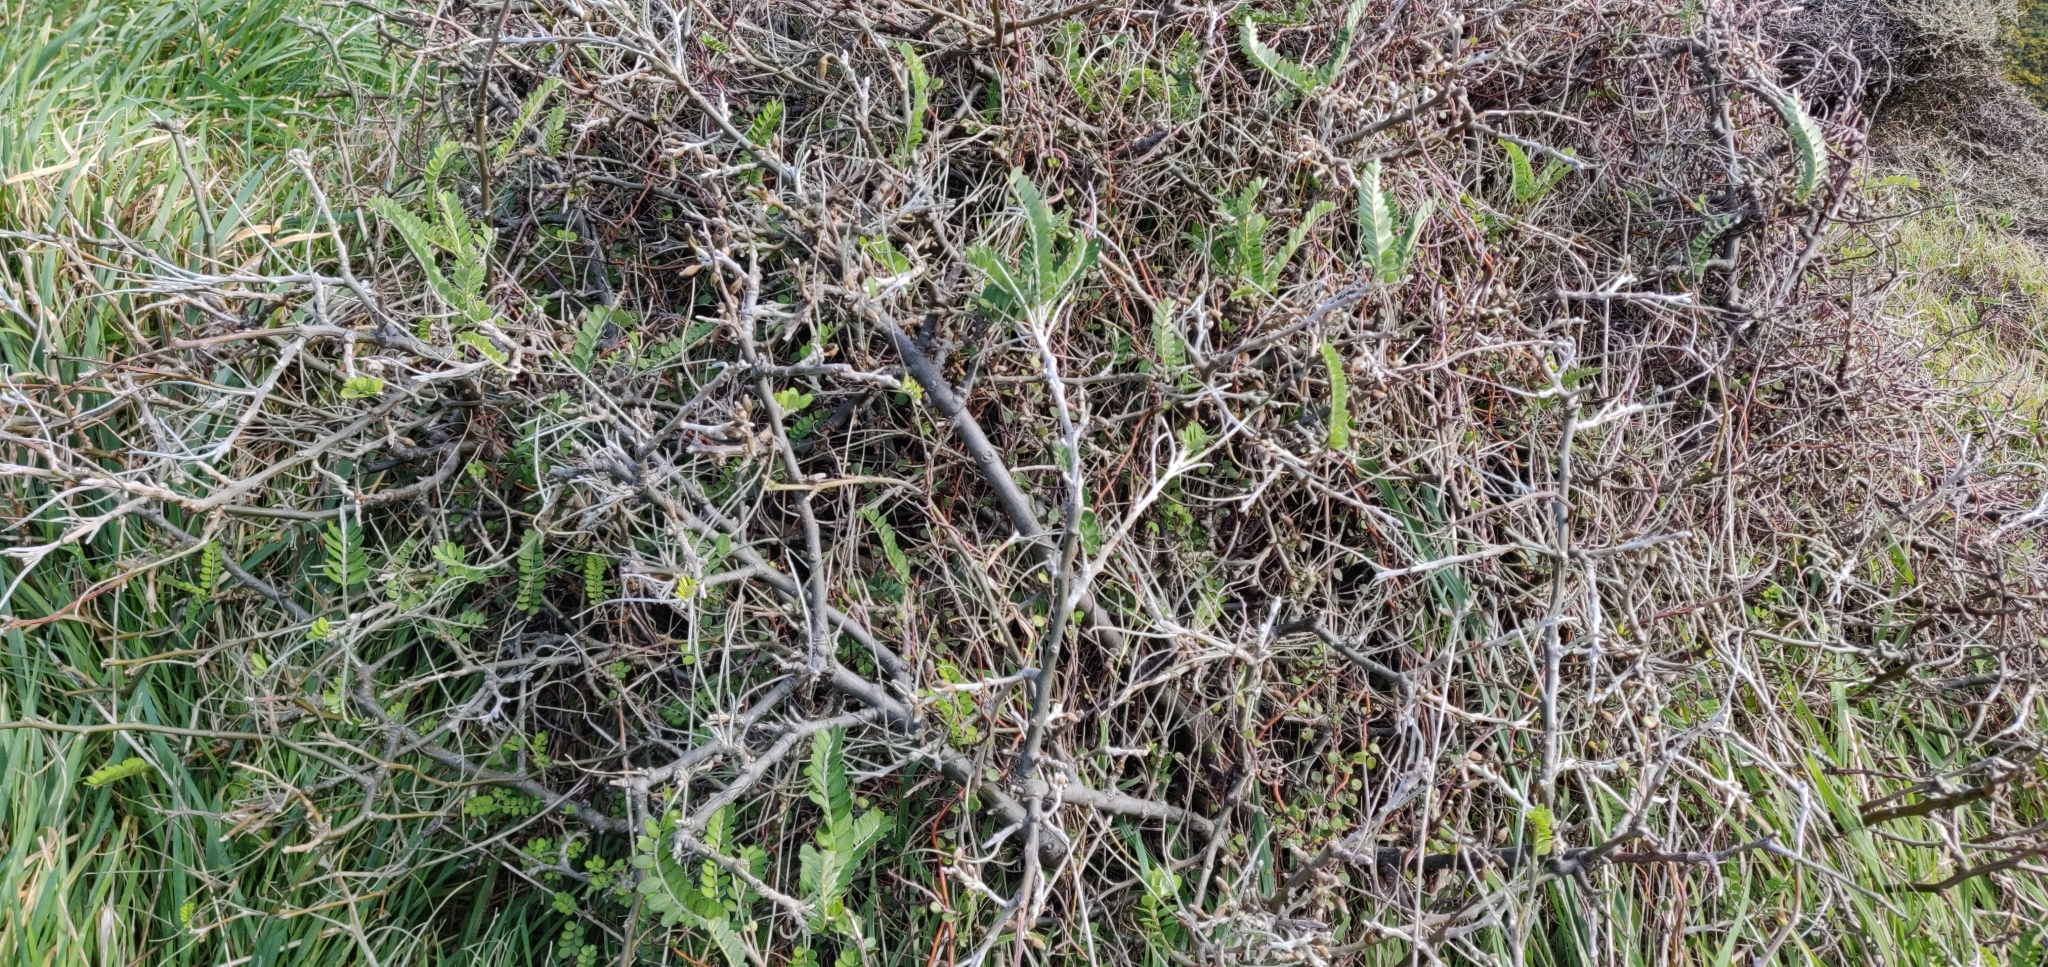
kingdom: Plantae
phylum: Tracheophyta
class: Magnoliopsida
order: Fabales
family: Fabaceae
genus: Sophora
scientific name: Sophora molloyi
